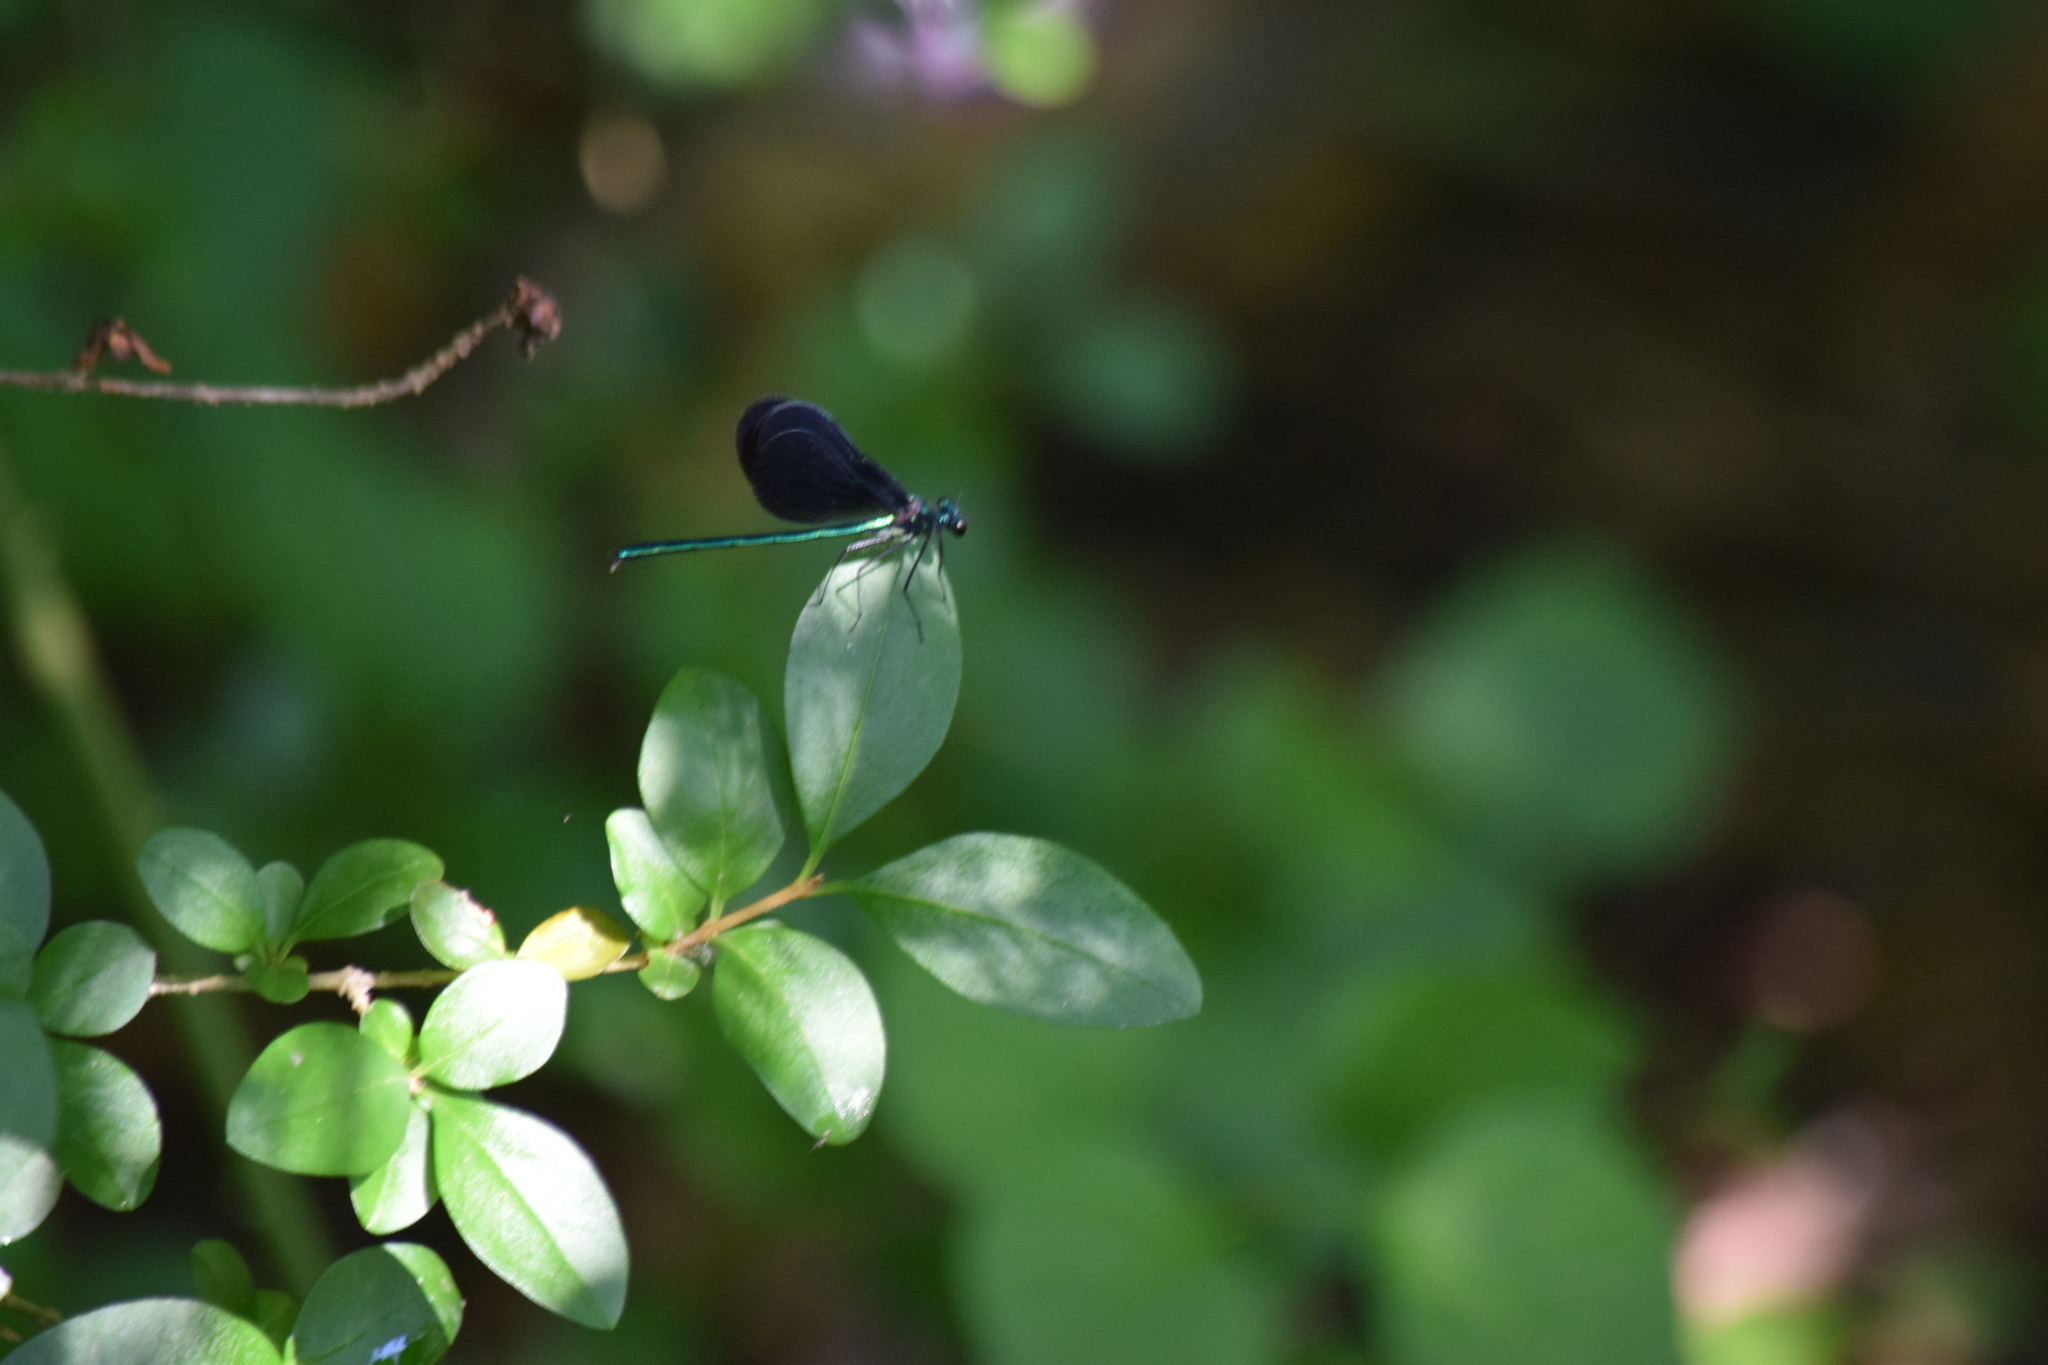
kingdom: Animalia
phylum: Arthropoda
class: Insecta
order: Odonata
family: Calopterygidae
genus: Calopteryx
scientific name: Calopteryx maculata
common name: Ebony jewelwing
